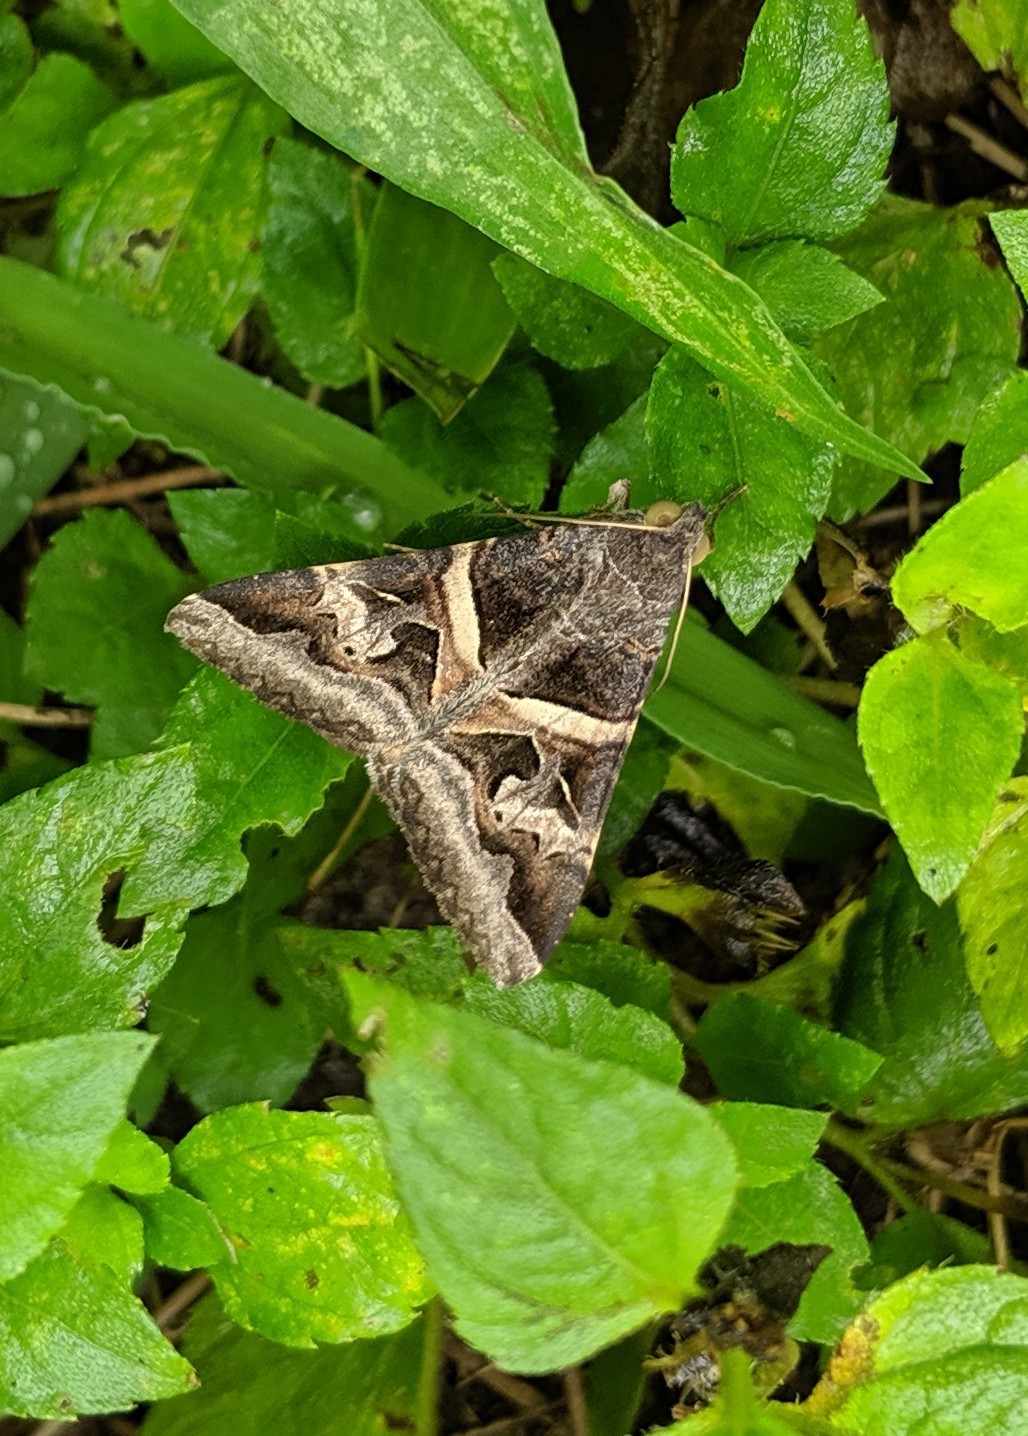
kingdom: Animalia
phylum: Arthropoda
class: Insecta
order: Lepidoptera
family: Erebidae
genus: Melipotis
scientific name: Melipotis indomita
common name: Moth
